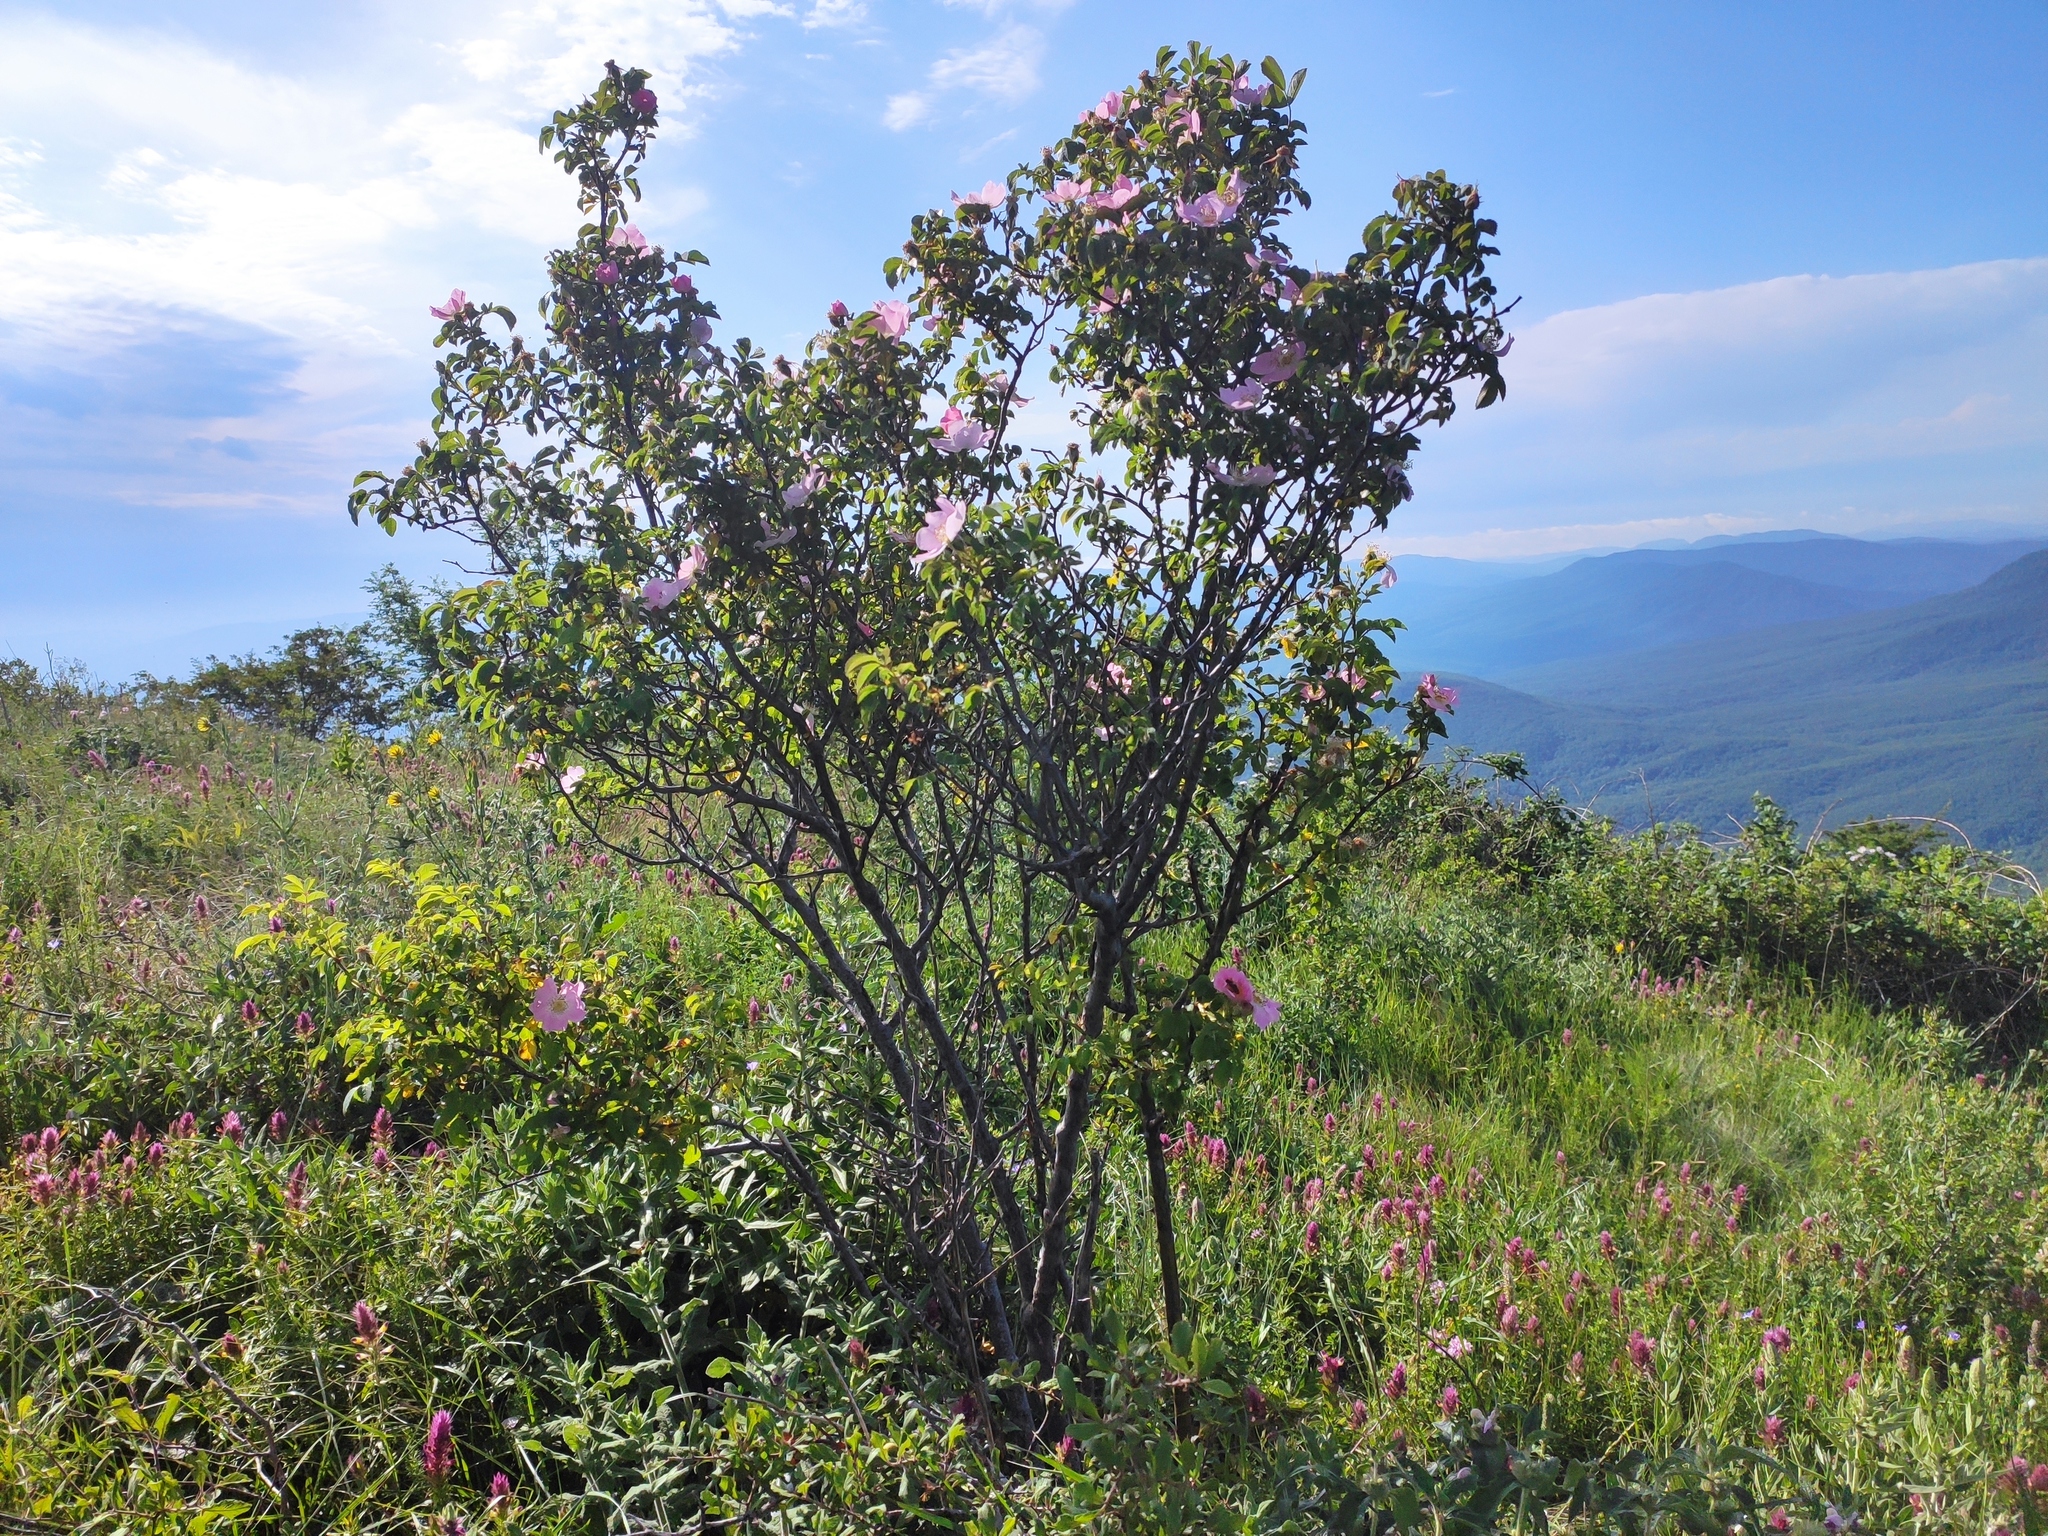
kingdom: Plantae
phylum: Tracheophyta
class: Magnoliopsida
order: Rosales
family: Rosaceae
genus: Rosa
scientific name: Rosa
